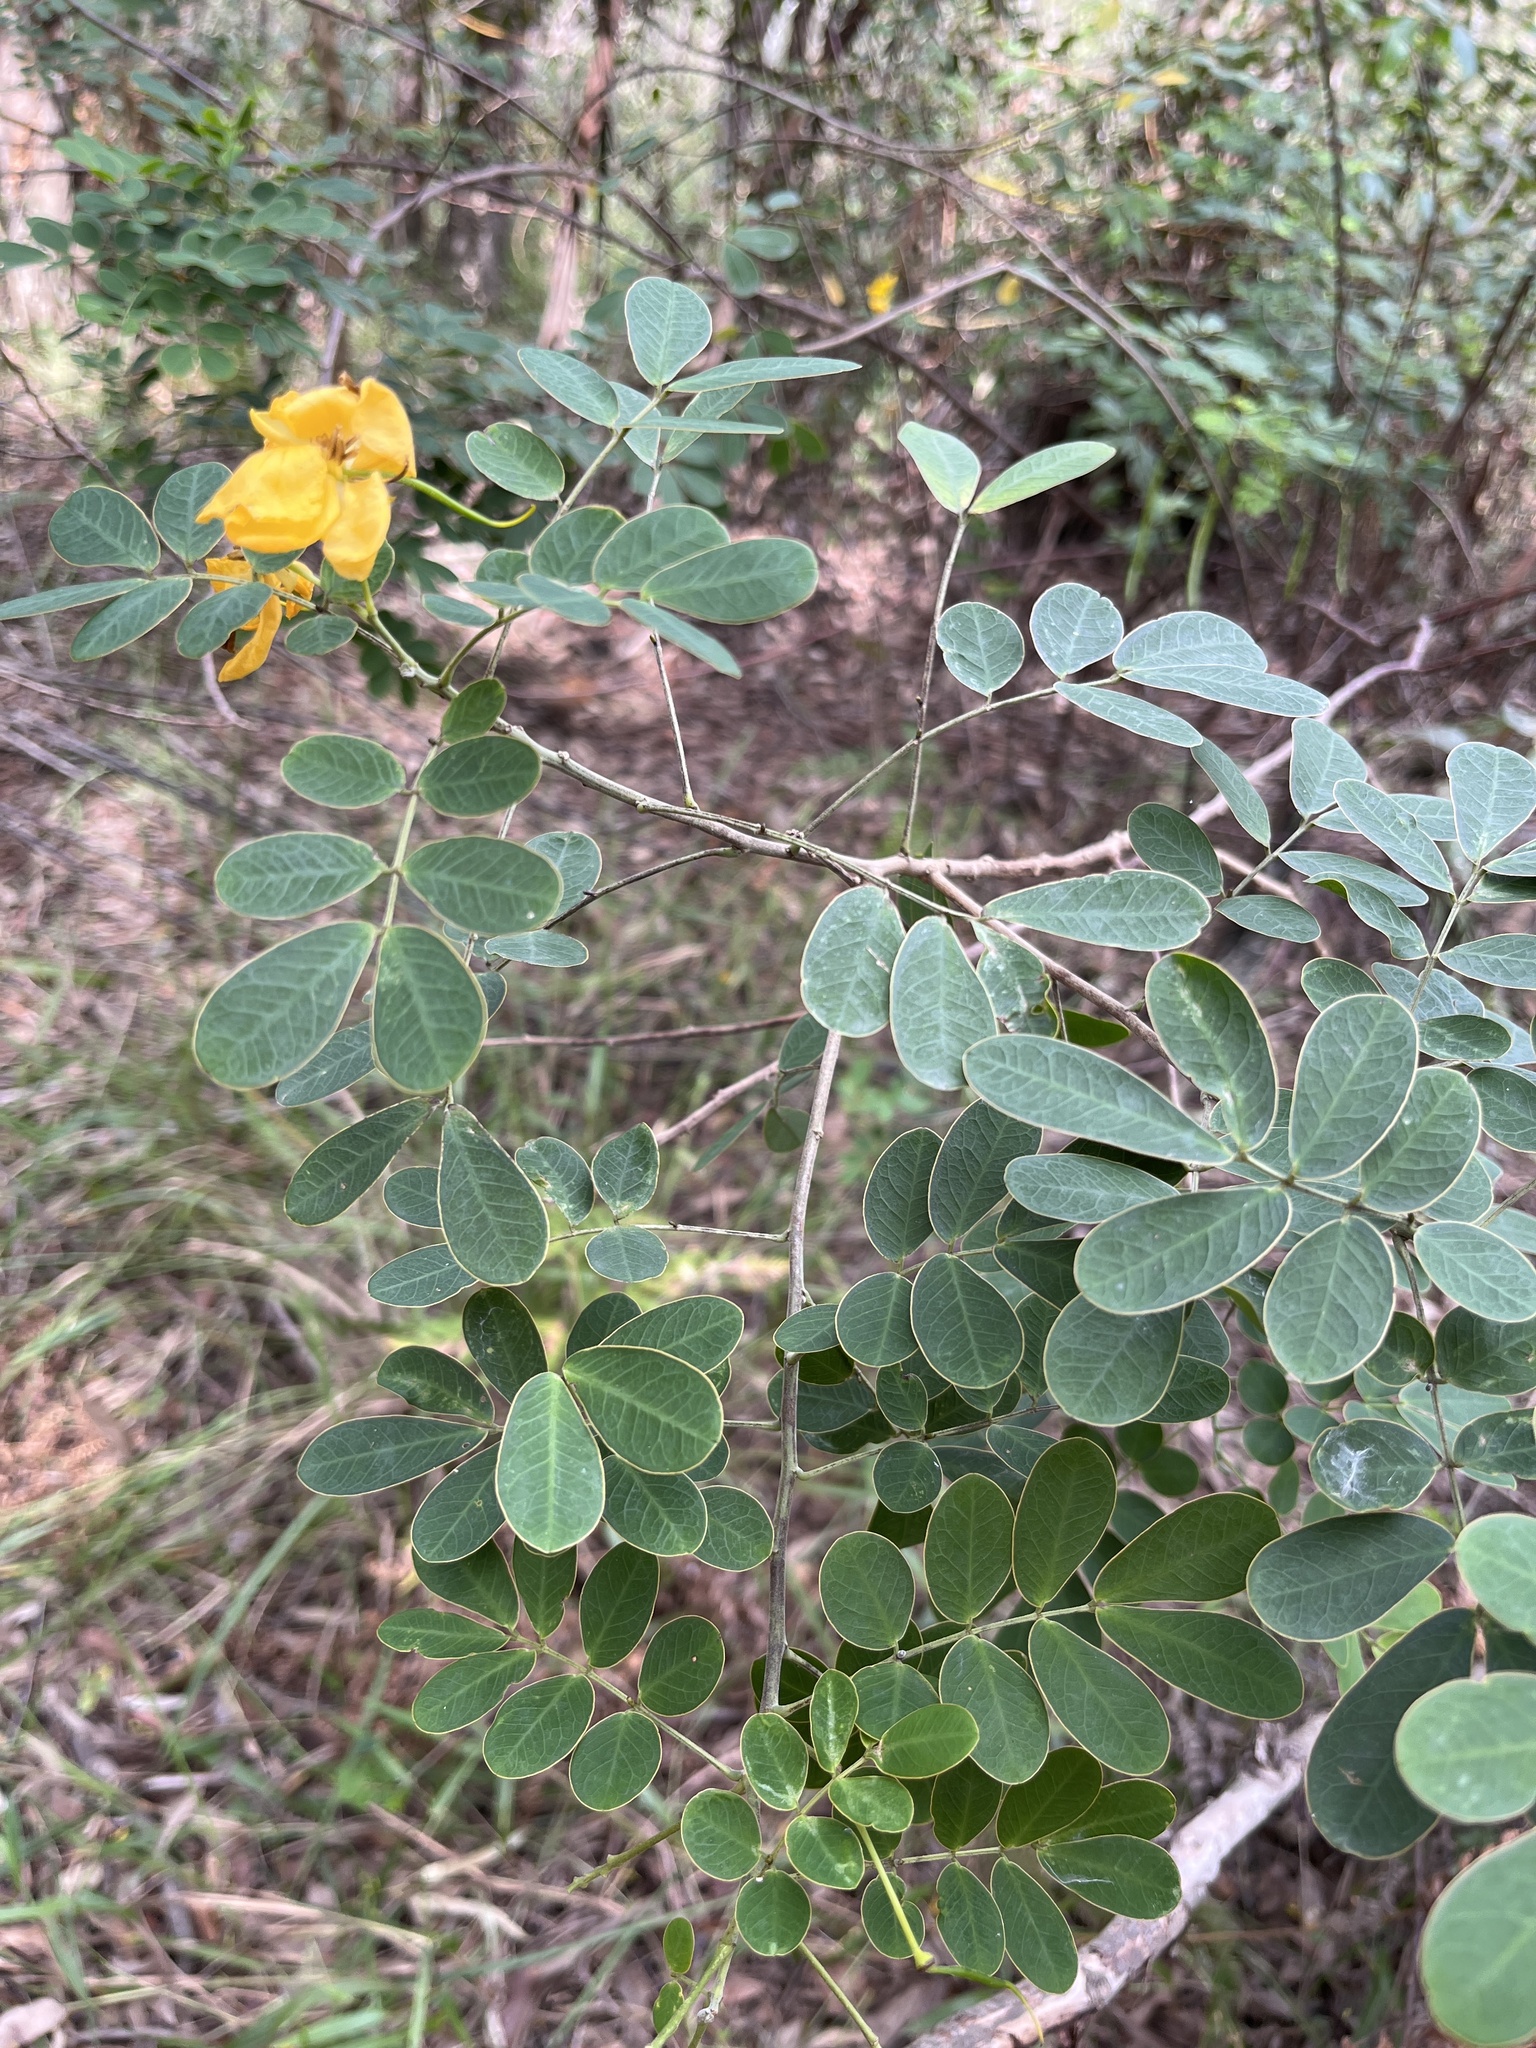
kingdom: Plantae
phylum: Tracheophyta
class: Magnoliopsida
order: Fabales
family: Fabaceae
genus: Senna
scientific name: Senna pendula
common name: Easter cassia
